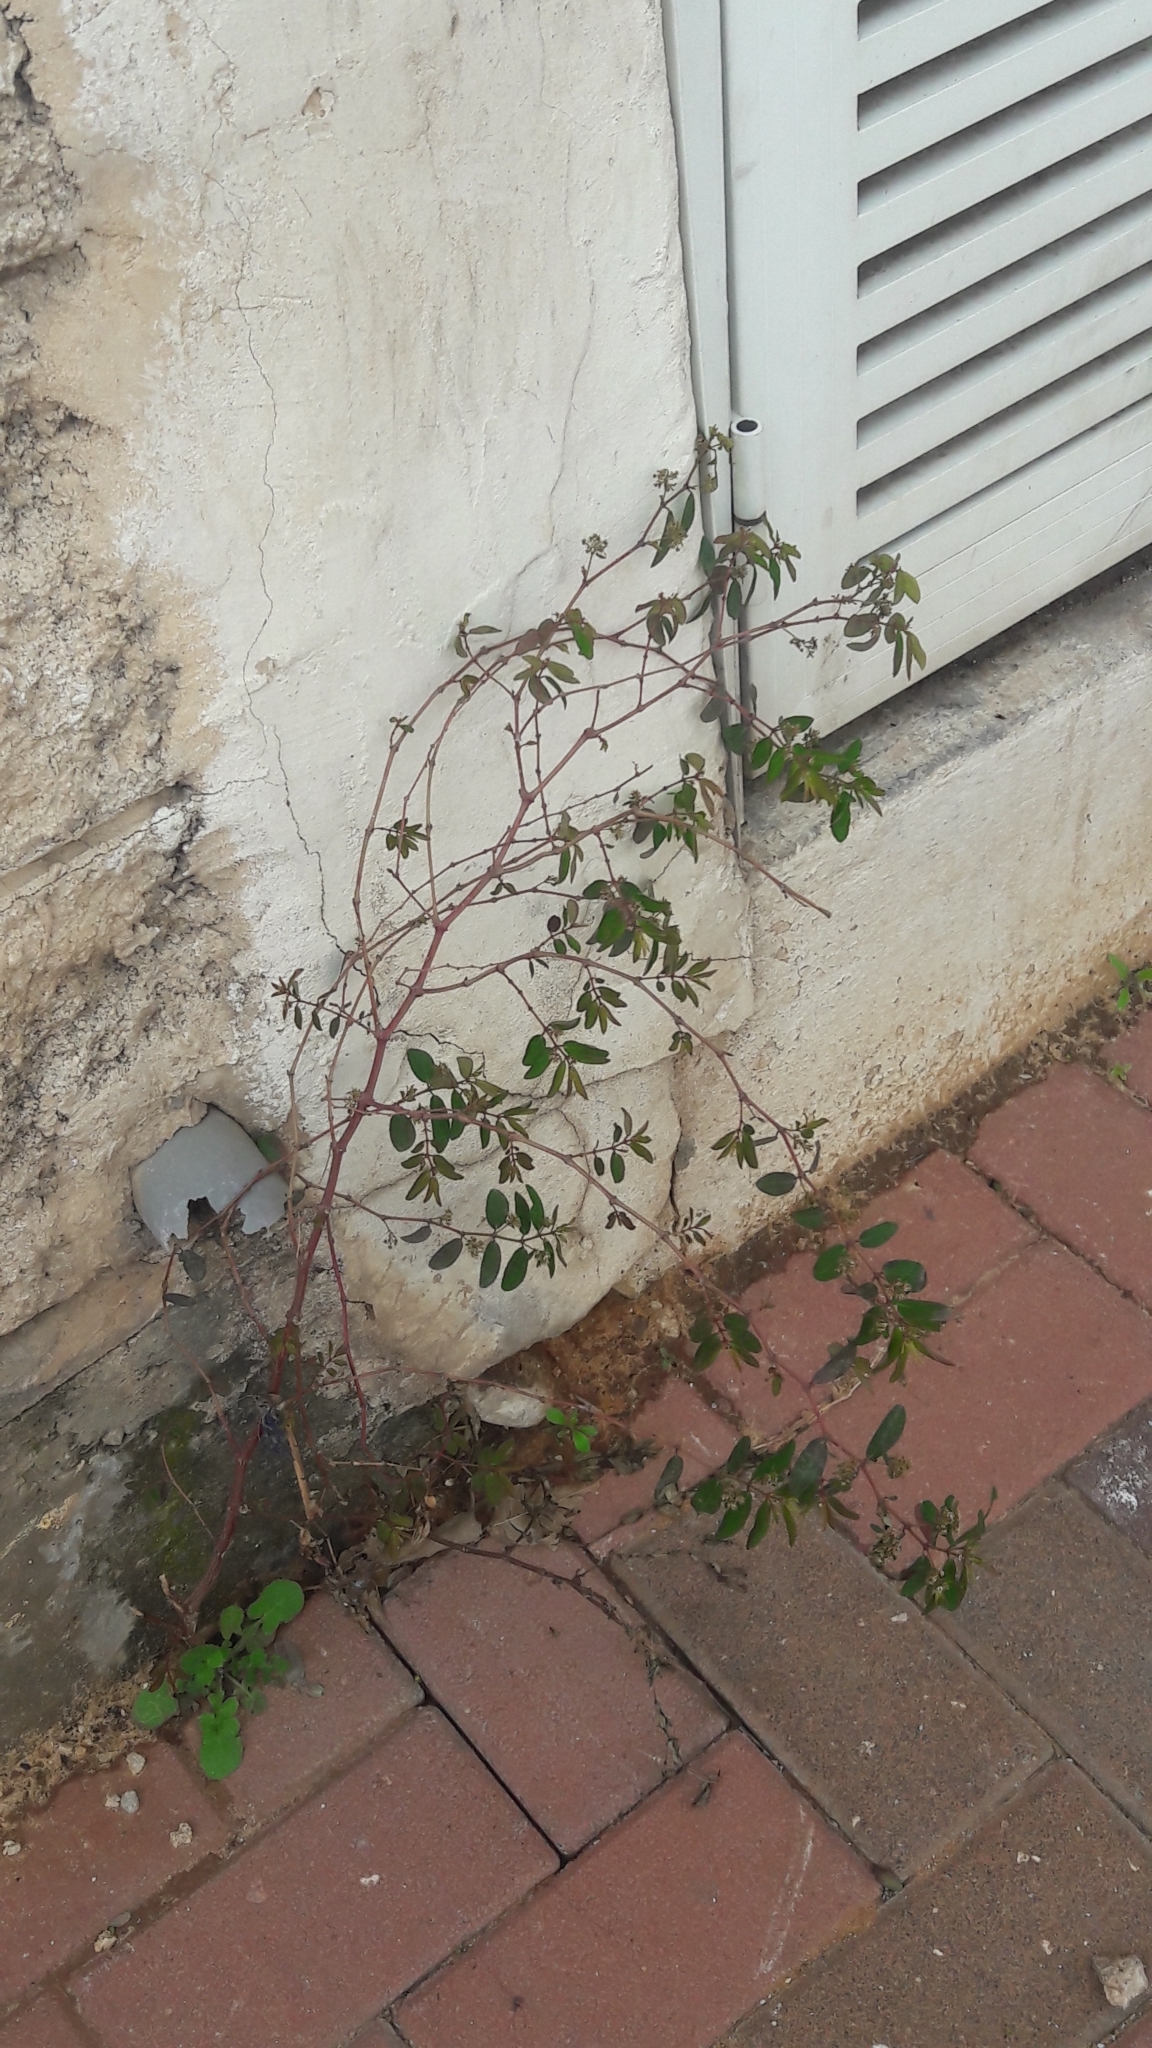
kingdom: Plantae
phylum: Tracheophyta
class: Magnoliopsida
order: Malpighiales
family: Euphorbiaceae
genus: Euphorbia
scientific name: Euphorbia hypericifolia
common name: Graceful sandmat
